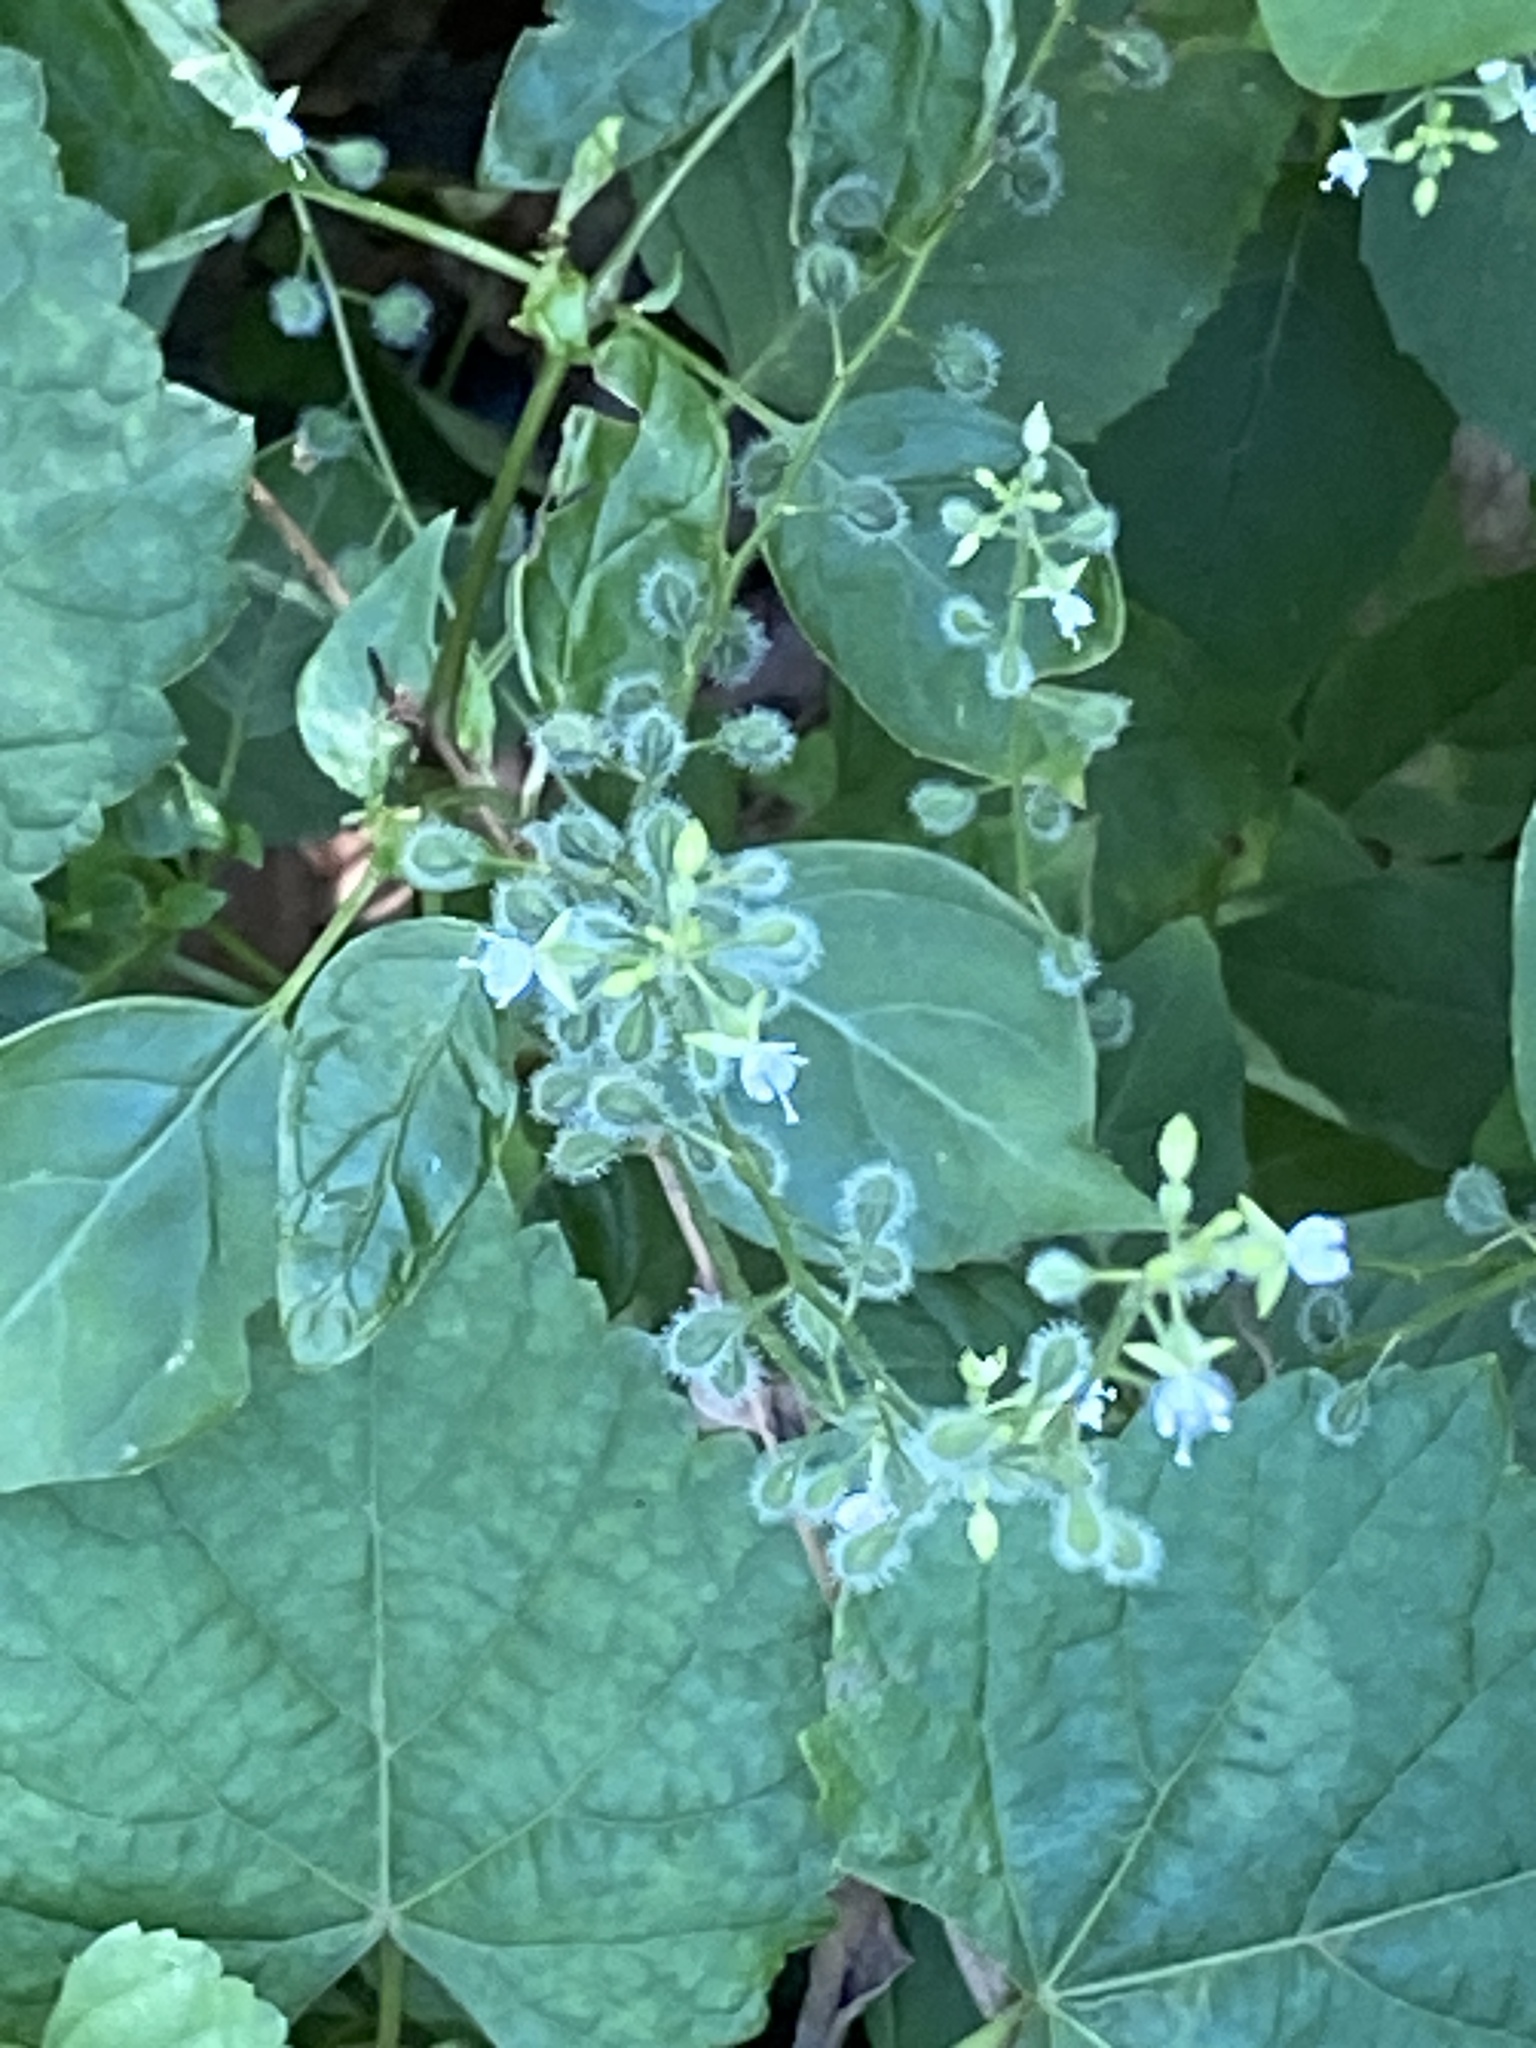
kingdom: Plantae
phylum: Tracheophyta
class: Magnoliopsida
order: Myrtales
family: Onagraceae
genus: Circaea
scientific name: Circaea canadensis
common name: Broad-leaved enchanter's nightshade
